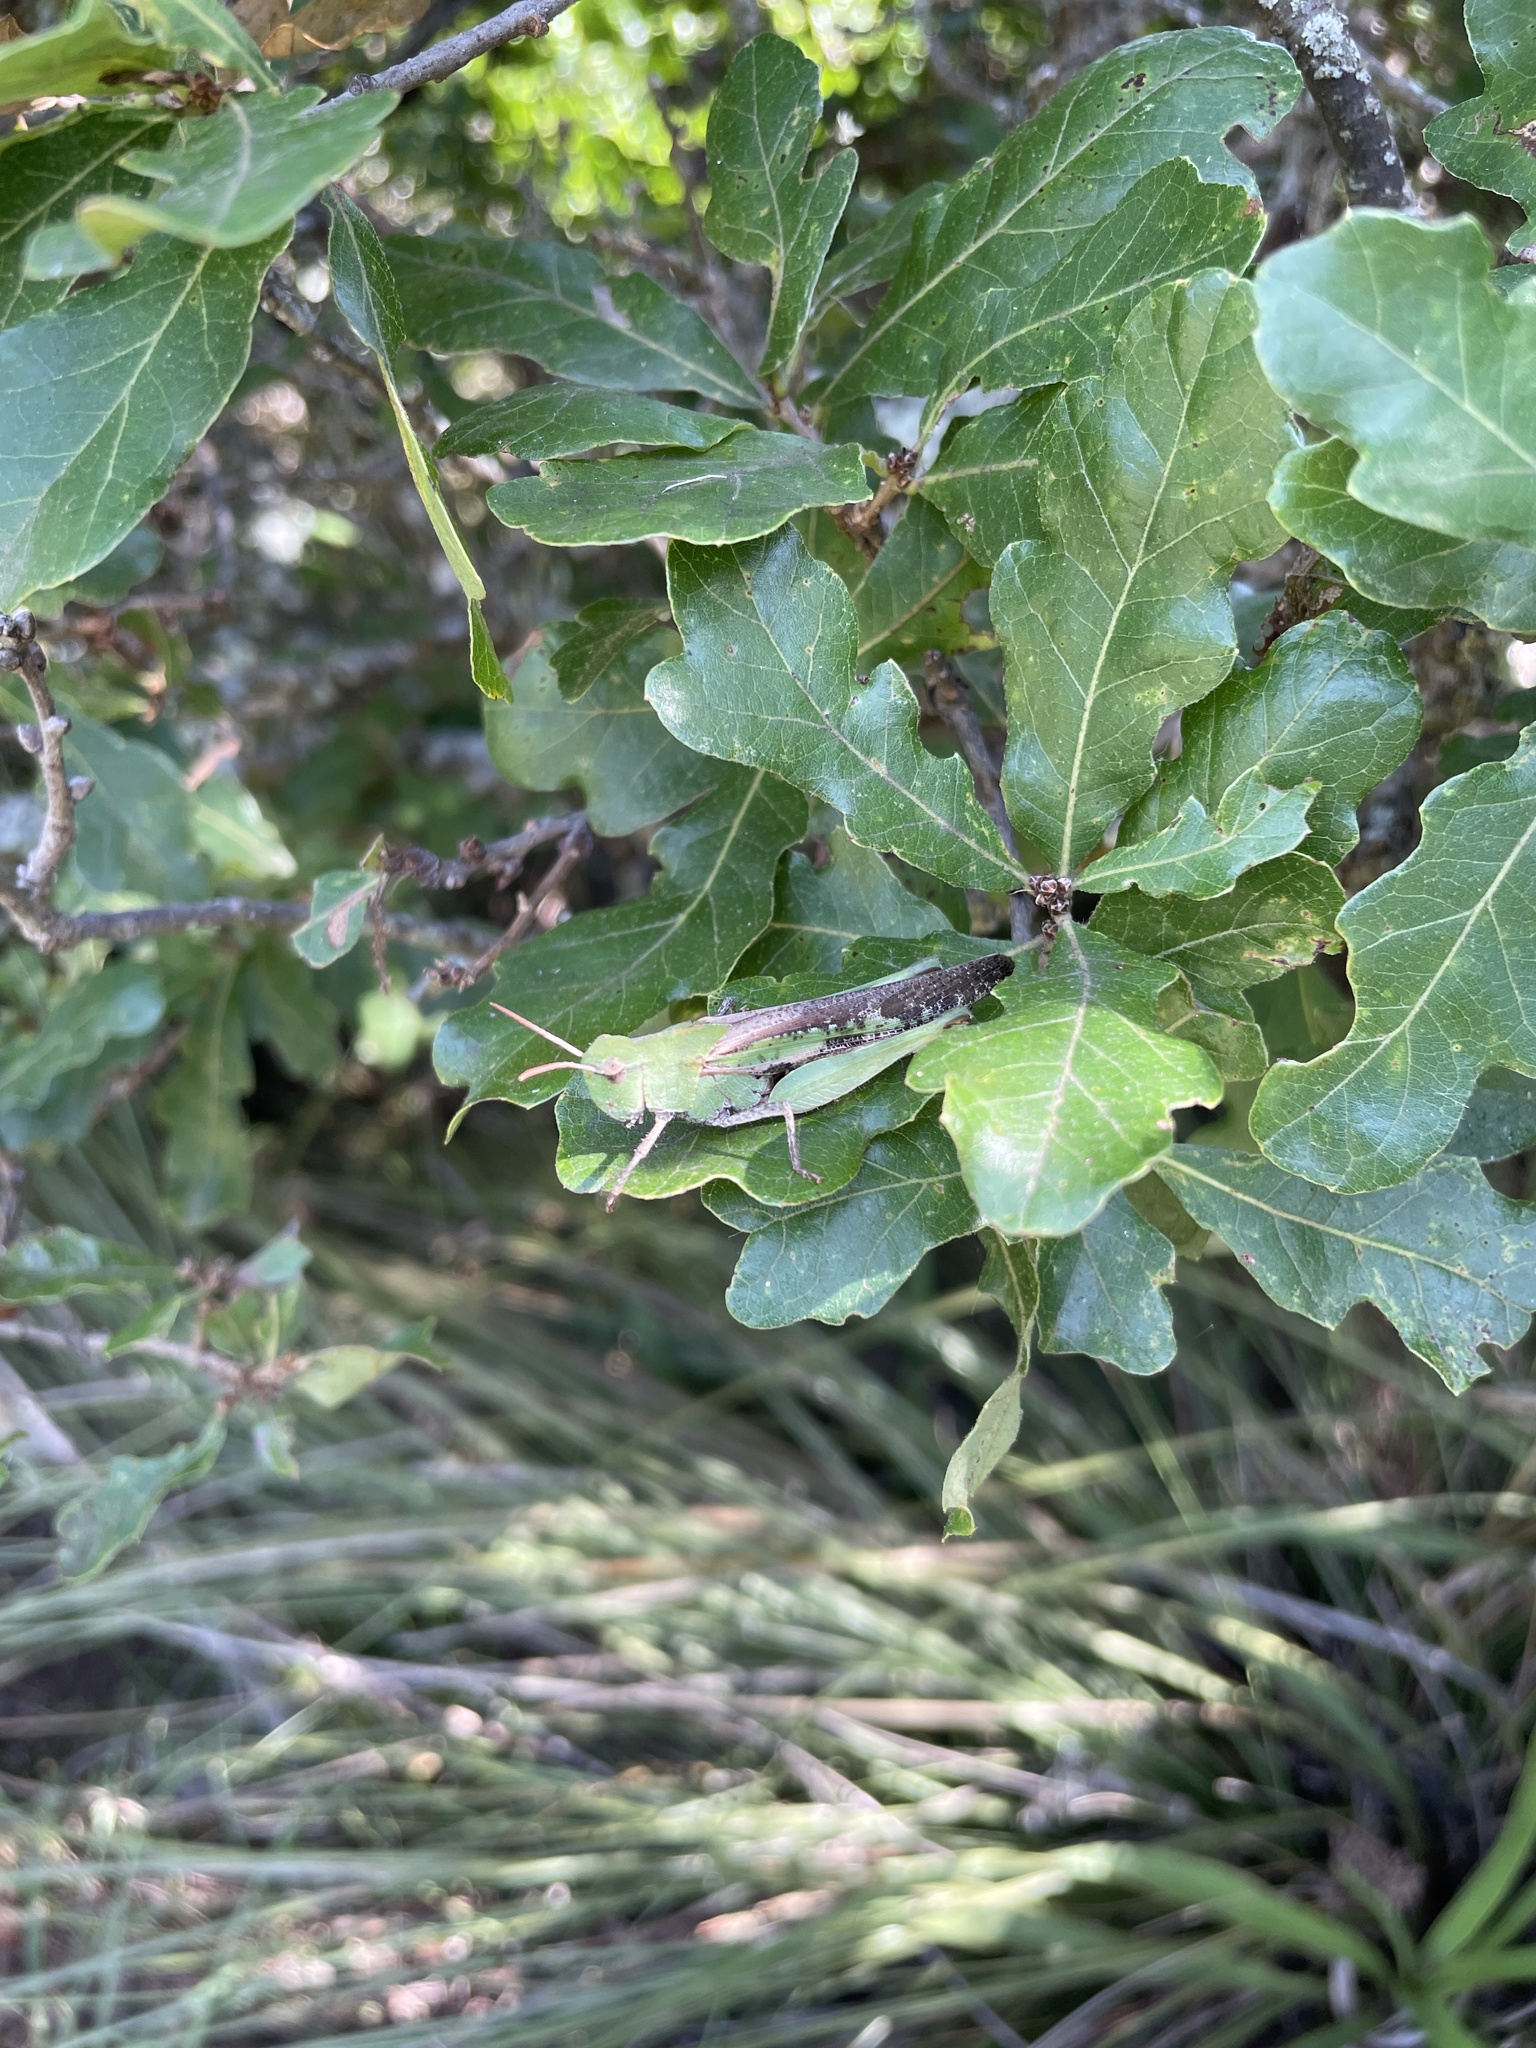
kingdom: Animalia
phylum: Arthropoda
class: Insecta
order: Orthoptera
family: Acrididae
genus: Chortophaga
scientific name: Chortophaga viridifasciata
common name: Green-striped grasshopper
